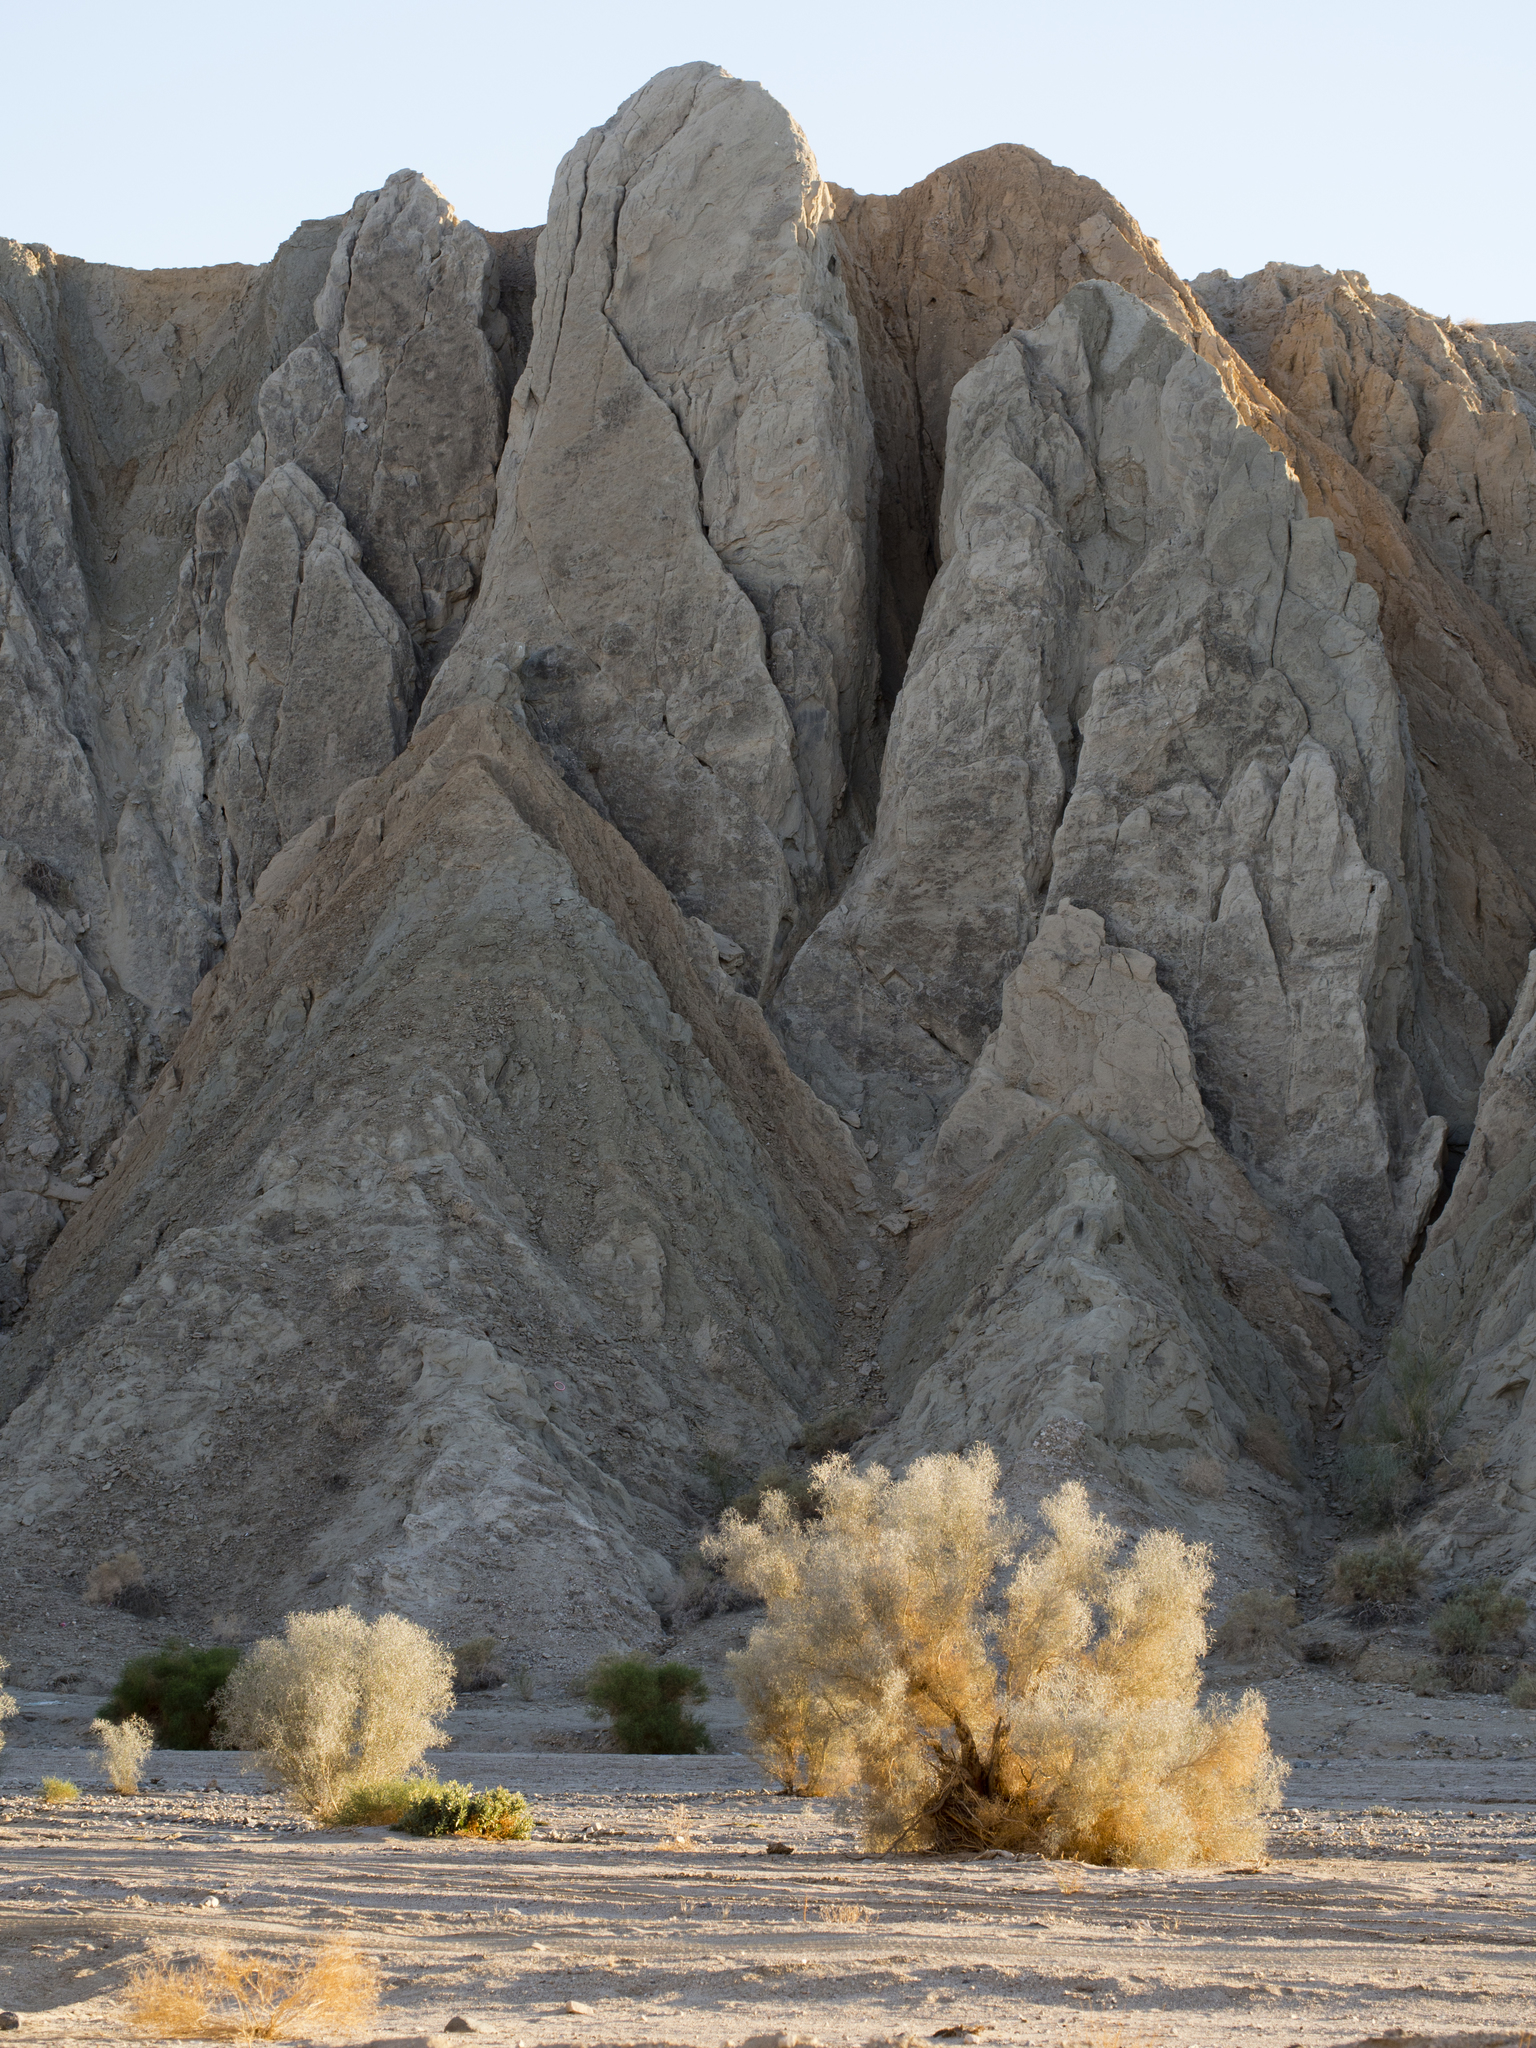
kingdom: Plantae
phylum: Tracheophyta
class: Magnoliopsida
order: Fabales
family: Fabaceae
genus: Psorothamnus
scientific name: Psorothamnus spinosus
